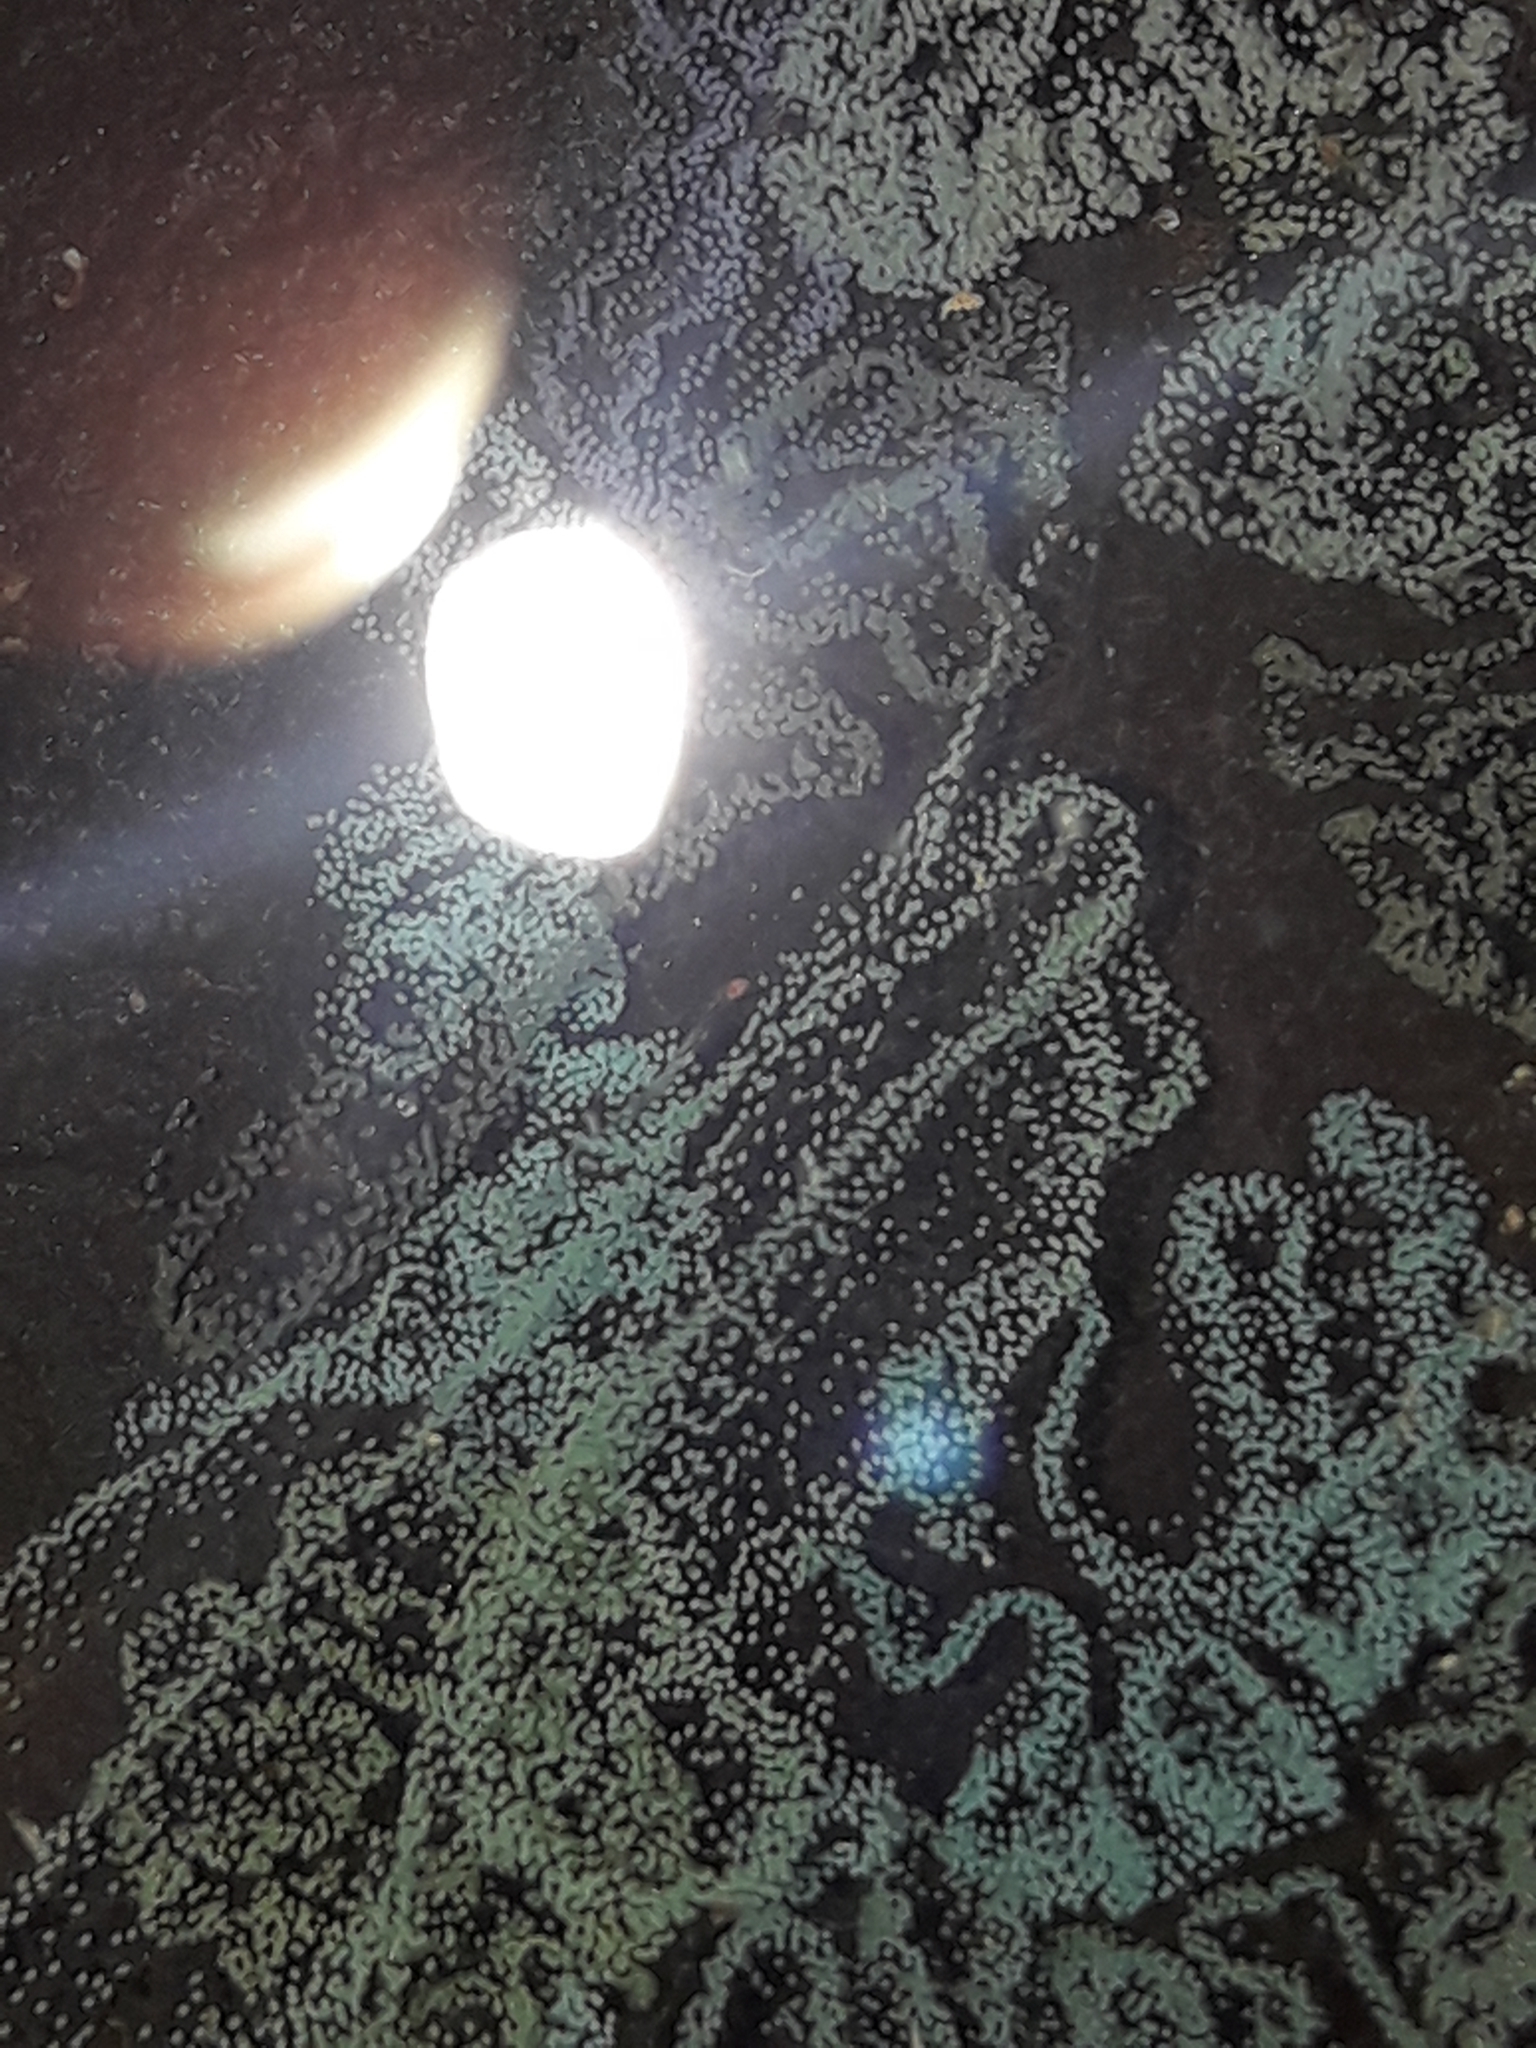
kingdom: Animalia
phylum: Mollusca
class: Gastropoda
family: Zemelanopsidae
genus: Zemelanopsis
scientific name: Zemelanopsis trifasciata
